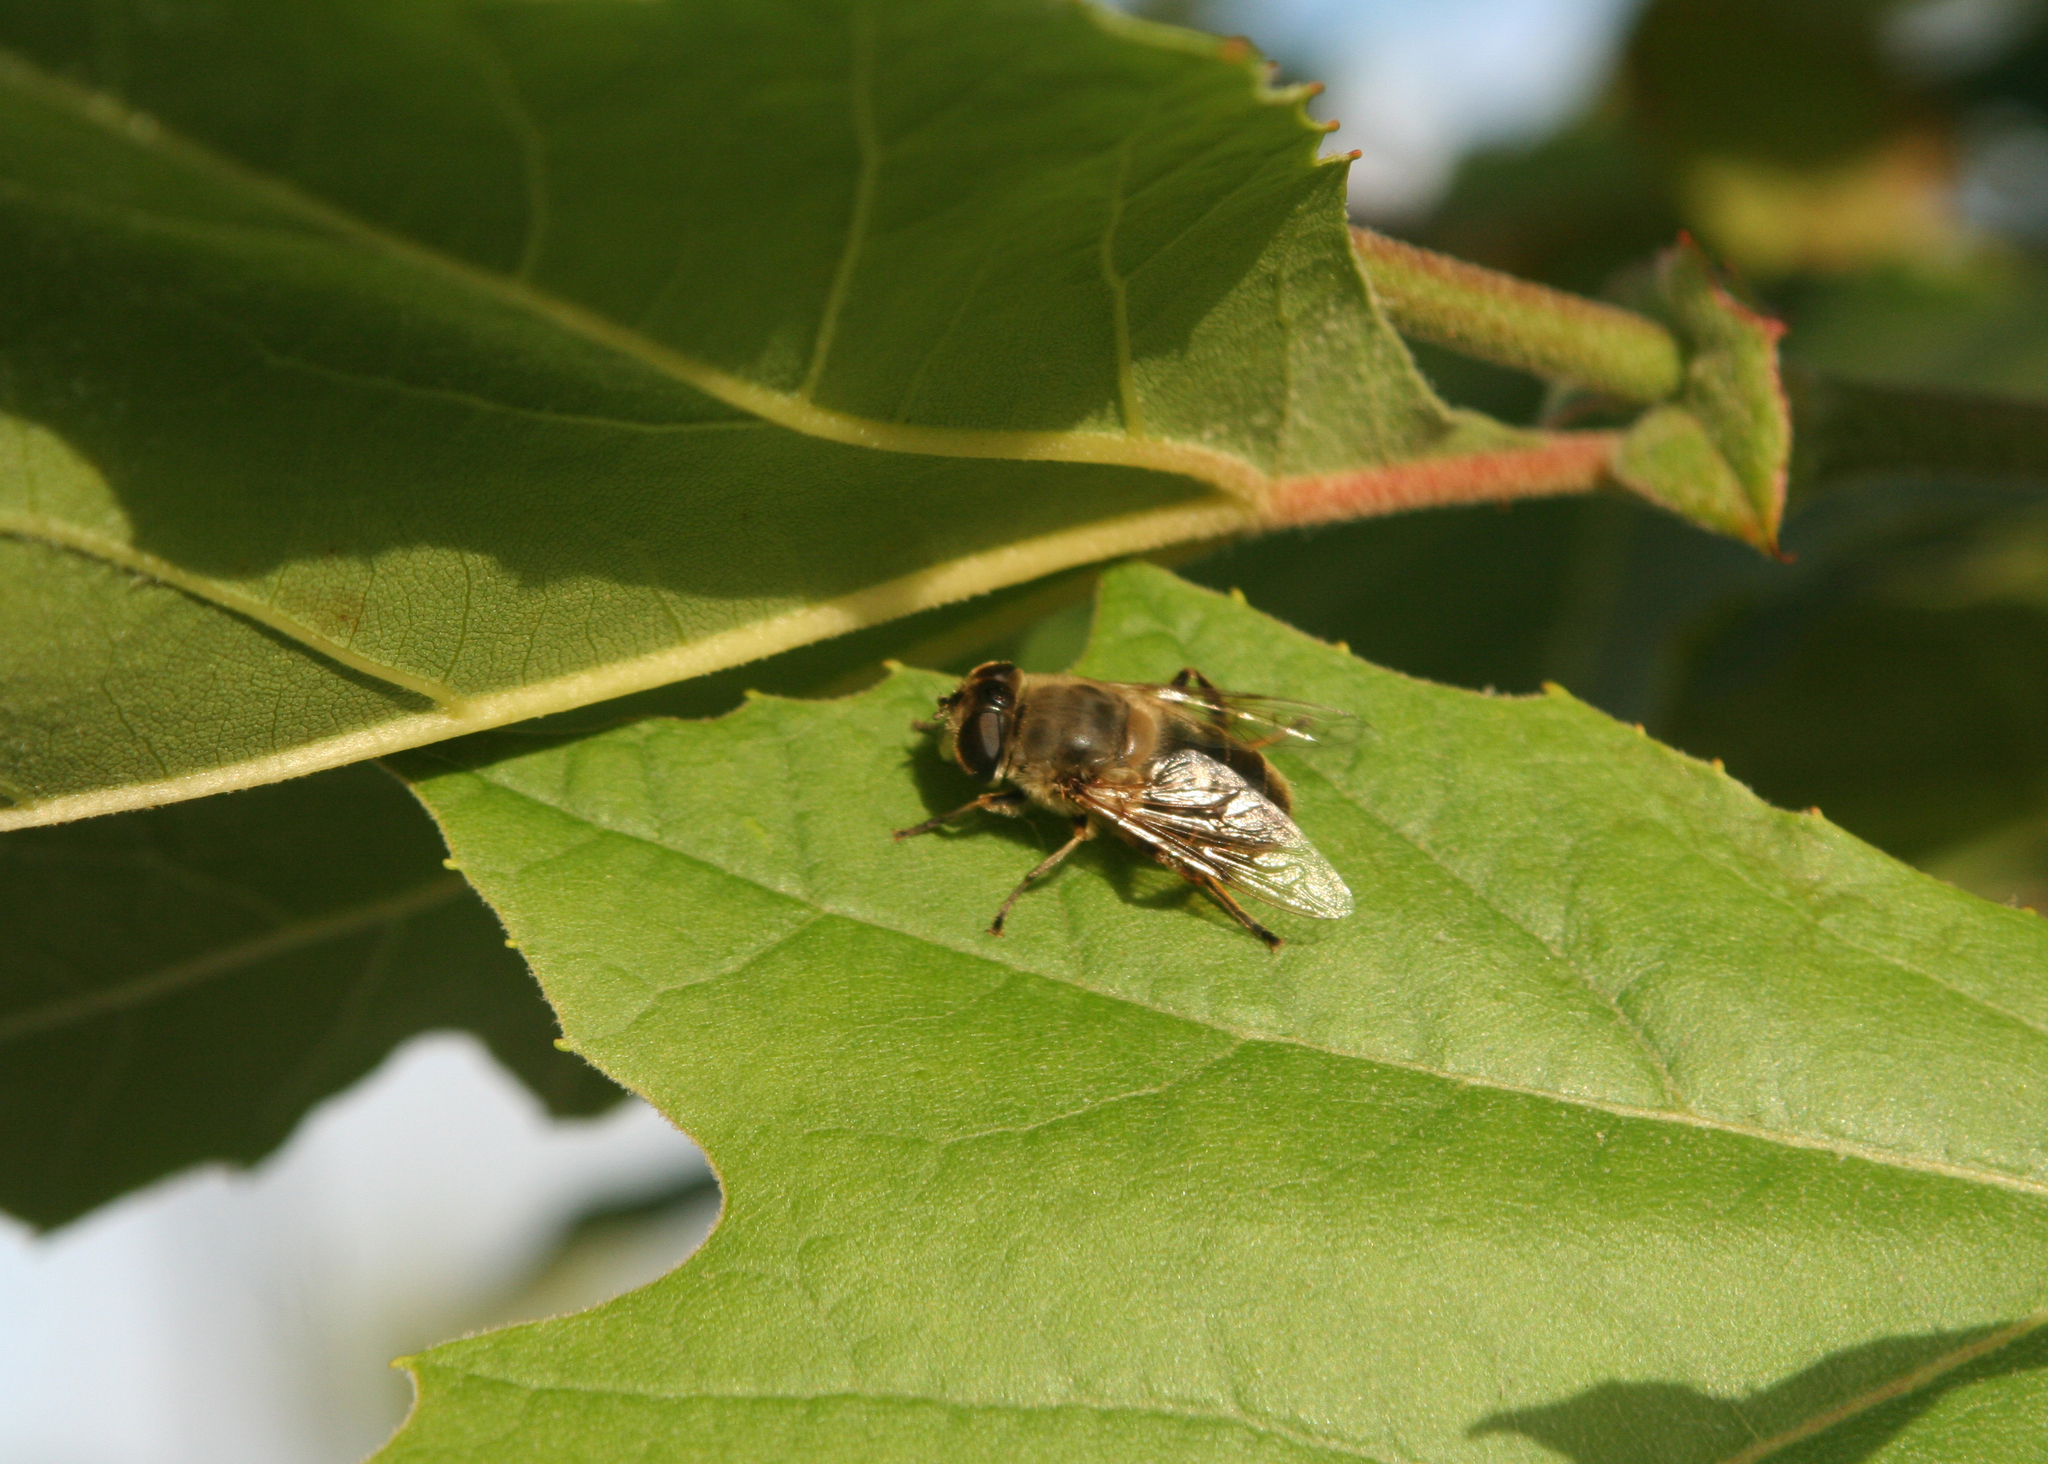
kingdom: Animalia
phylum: Arthropoda
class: Insecta
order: Diptera
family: Syrphidae
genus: Eristalis
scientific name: Eristalis tenax
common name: Drone fly
